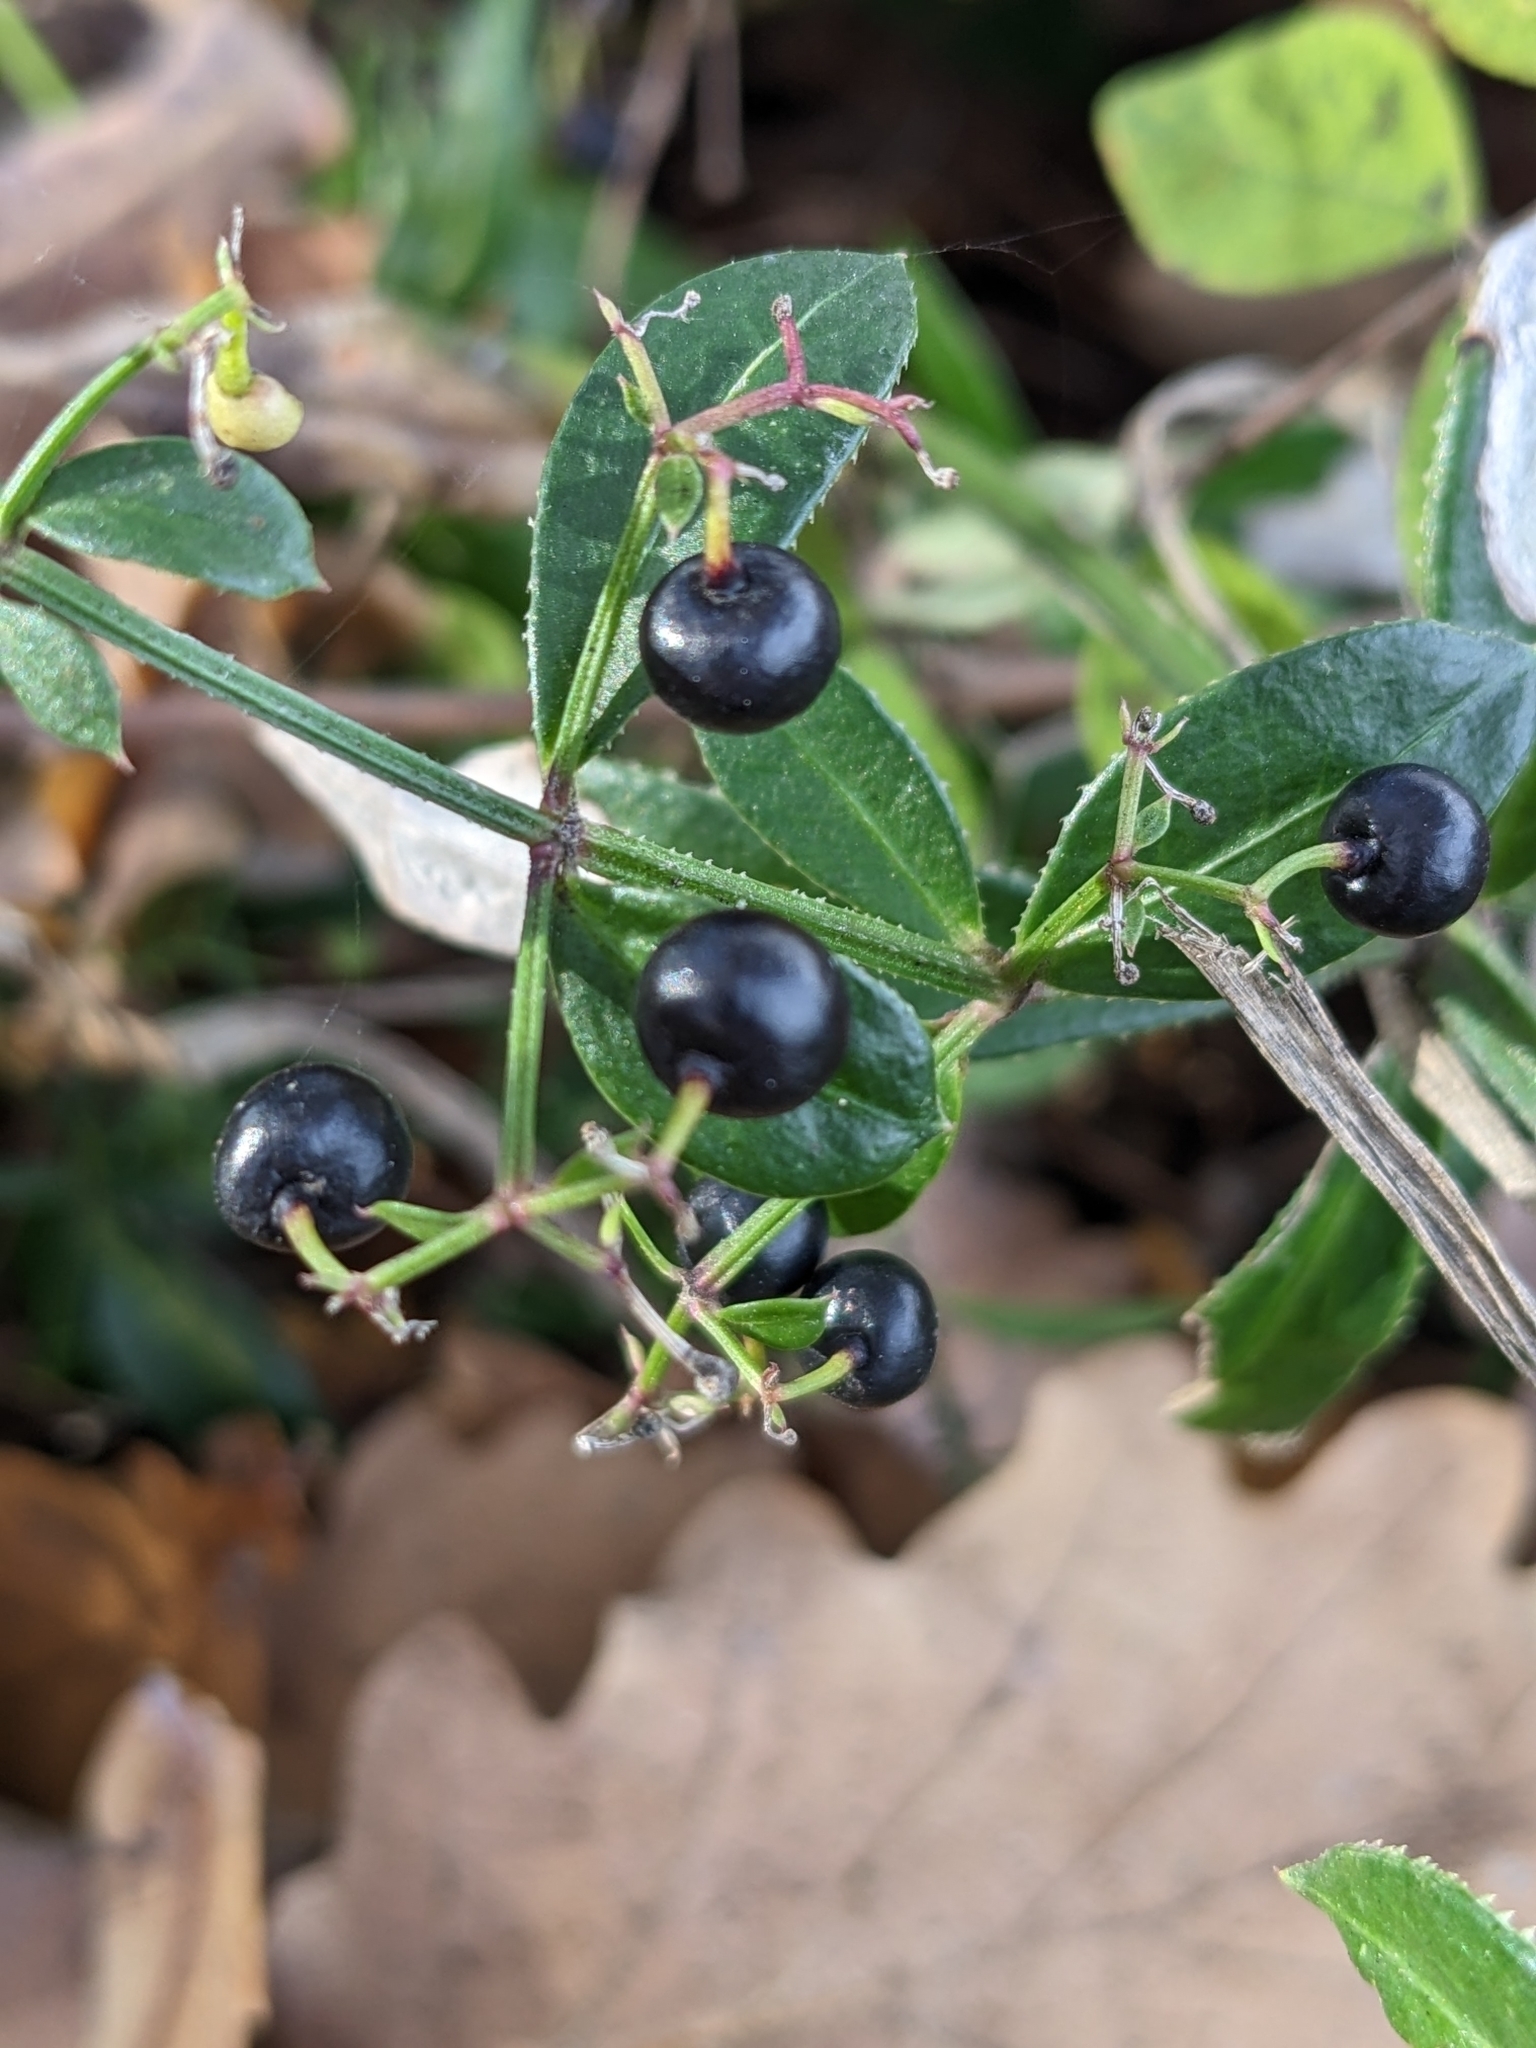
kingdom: Plantae
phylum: Tracheophyta
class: Magnoliopsida
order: Gentianales
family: Rubiaceae
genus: Rubia
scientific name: Rubia peregrina
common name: Wild madder
